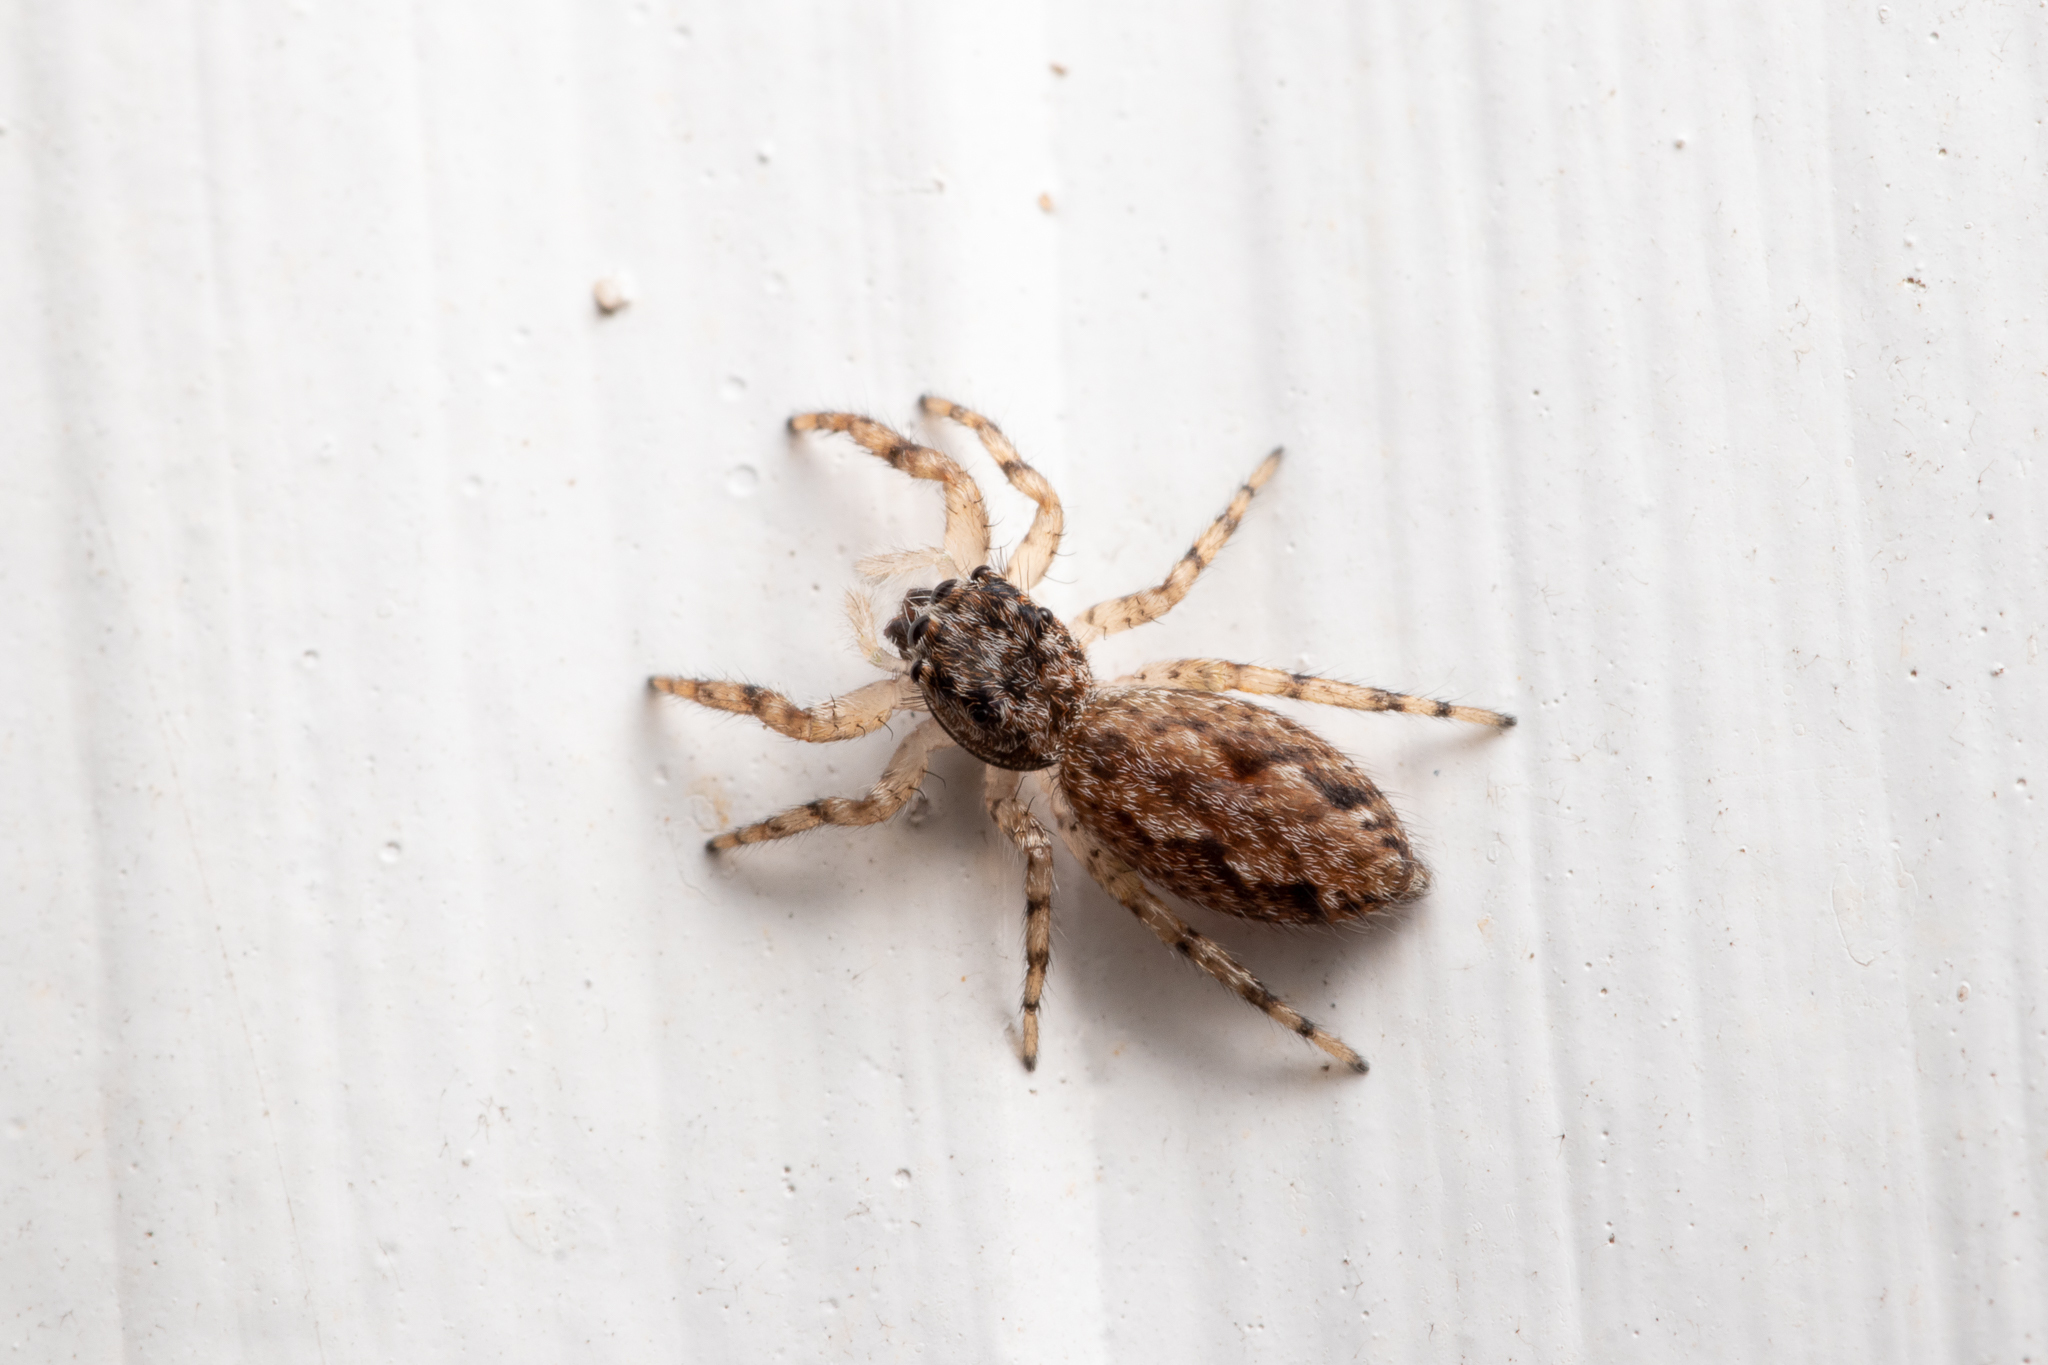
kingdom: Animalia
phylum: Arthropoda
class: Arachnida
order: Araneae
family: Salticidae
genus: Platycryptus
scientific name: Platycryptus undatus
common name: Tan jumping spider
